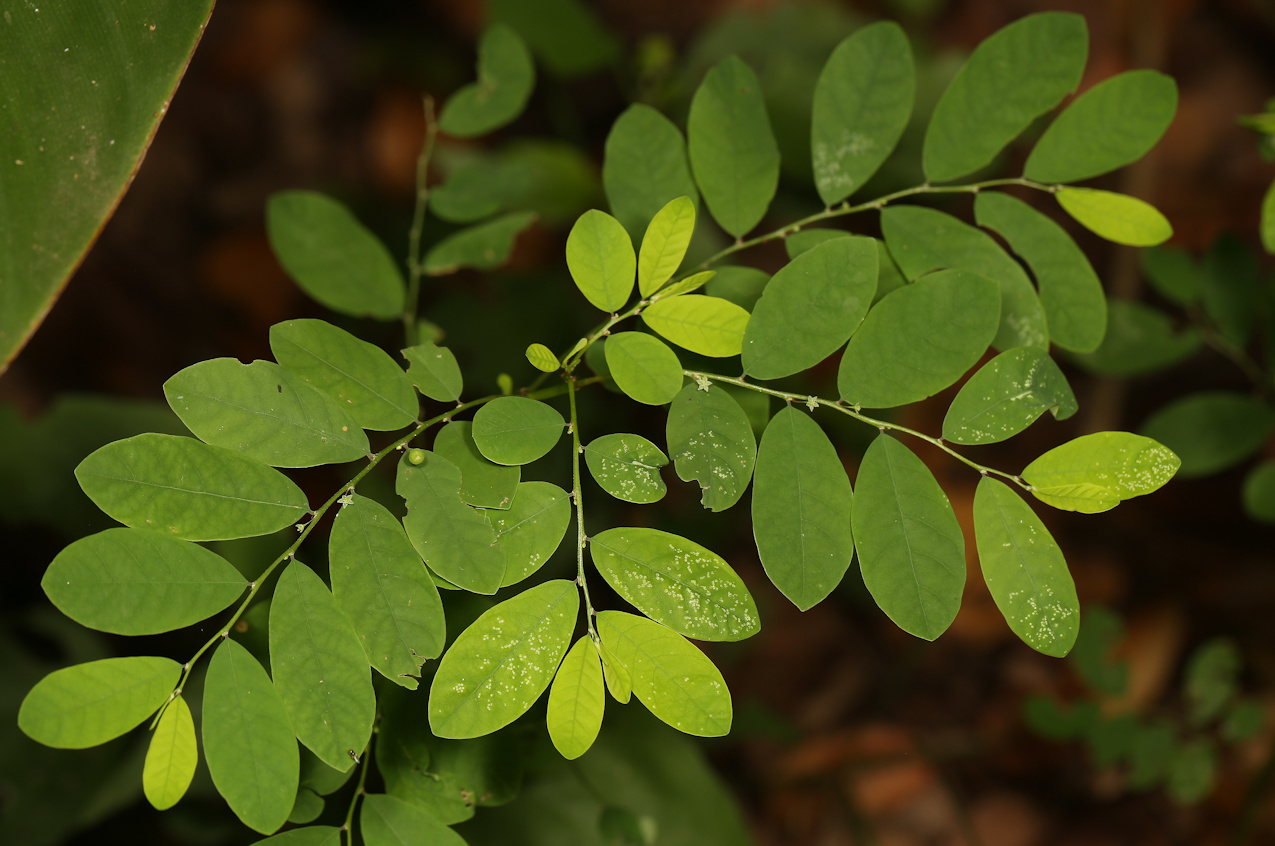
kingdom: Plantae
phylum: Tracheophyta
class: Magnoliopsida
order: Malpighiales
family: Phyllanthaceae
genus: Phyllanthus
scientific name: Phyllanthus tenellus
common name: Mascarene island leaf-flower
